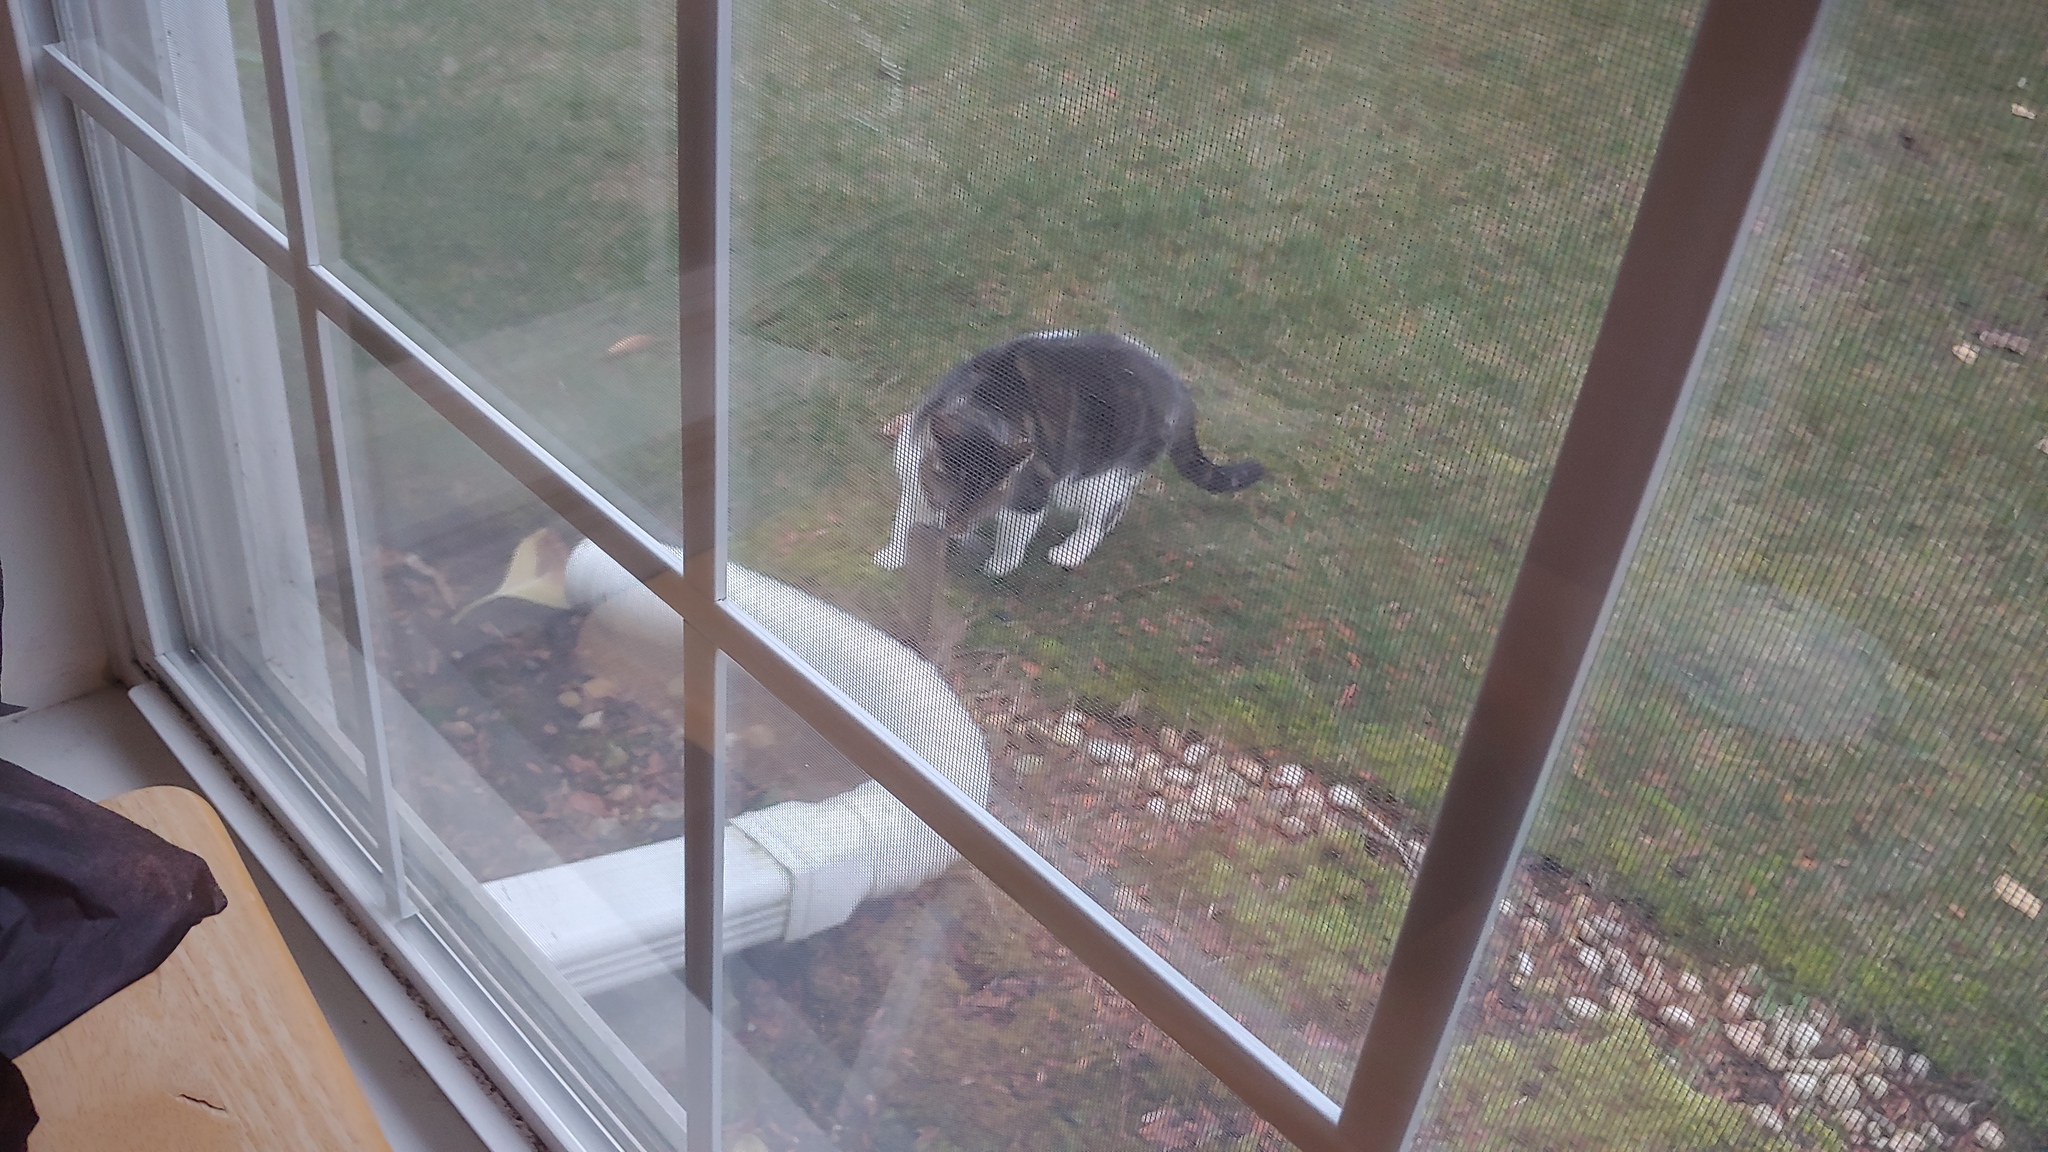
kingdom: Animalia
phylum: Chordata
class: Mammalia
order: Carnivora
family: Felidae
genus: Felis
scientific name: Felis catus
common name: Domestic cat
